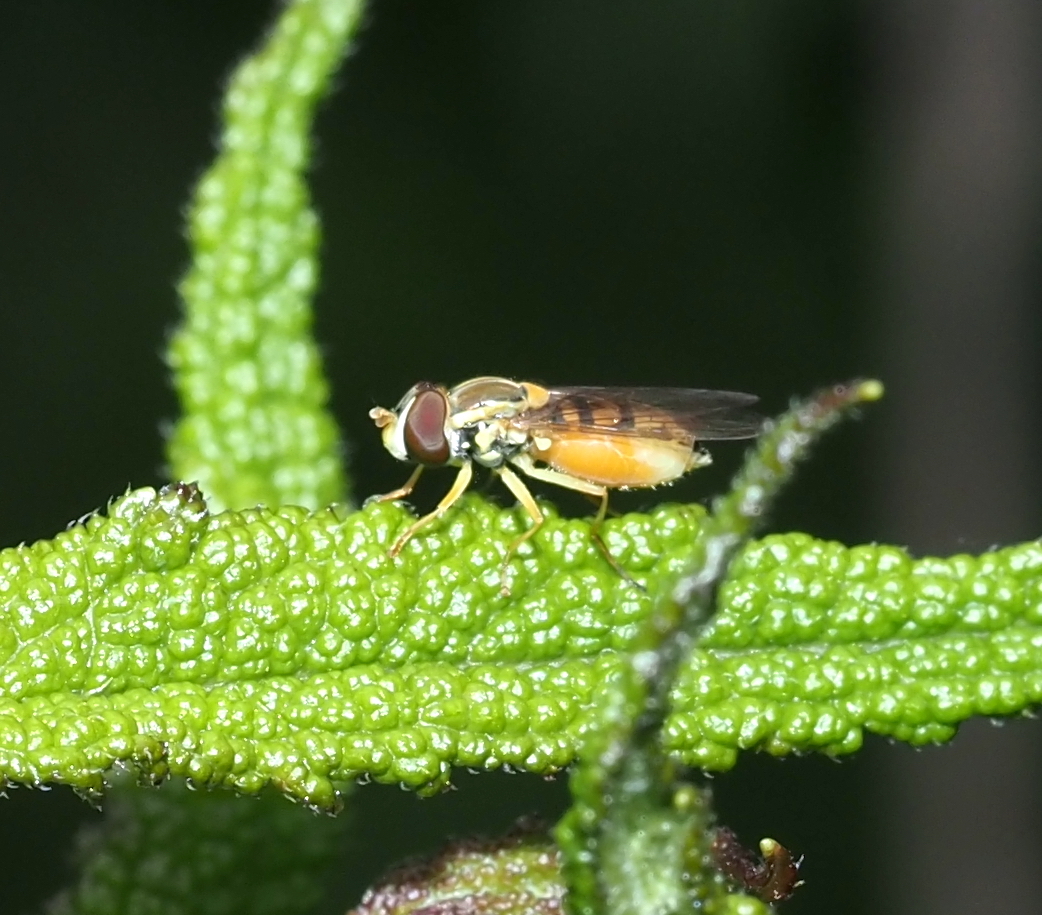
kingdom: Animalia
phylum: Arthropoda
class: Insecta
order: Diptera
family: Syrphidae
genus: Toxomerus
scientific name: Toxomerus marginatus
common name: Syrphid fly
